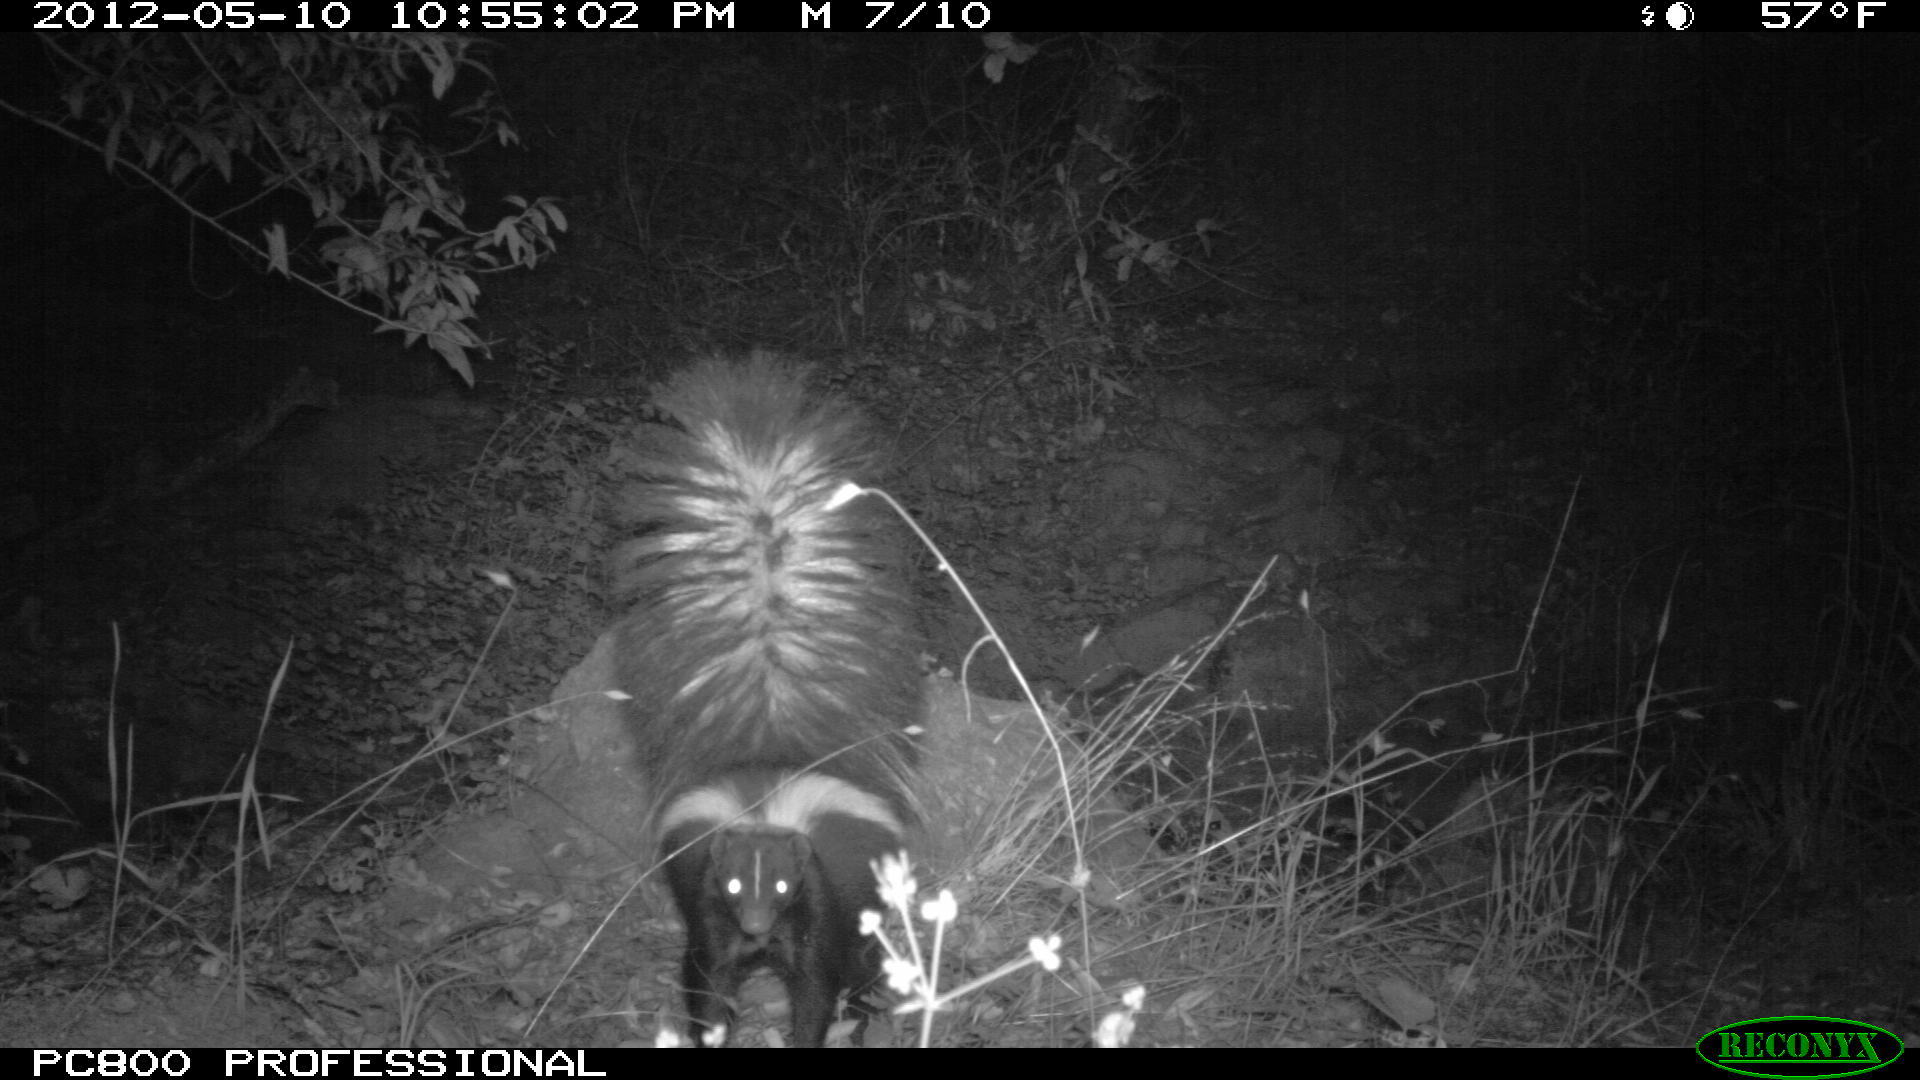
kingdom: Animalia
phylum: Chordata
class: Mammalia
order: Carnivora
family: Mephitidae
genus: Mephitis
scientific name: Mephitis mephitis
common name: Striped skunk
